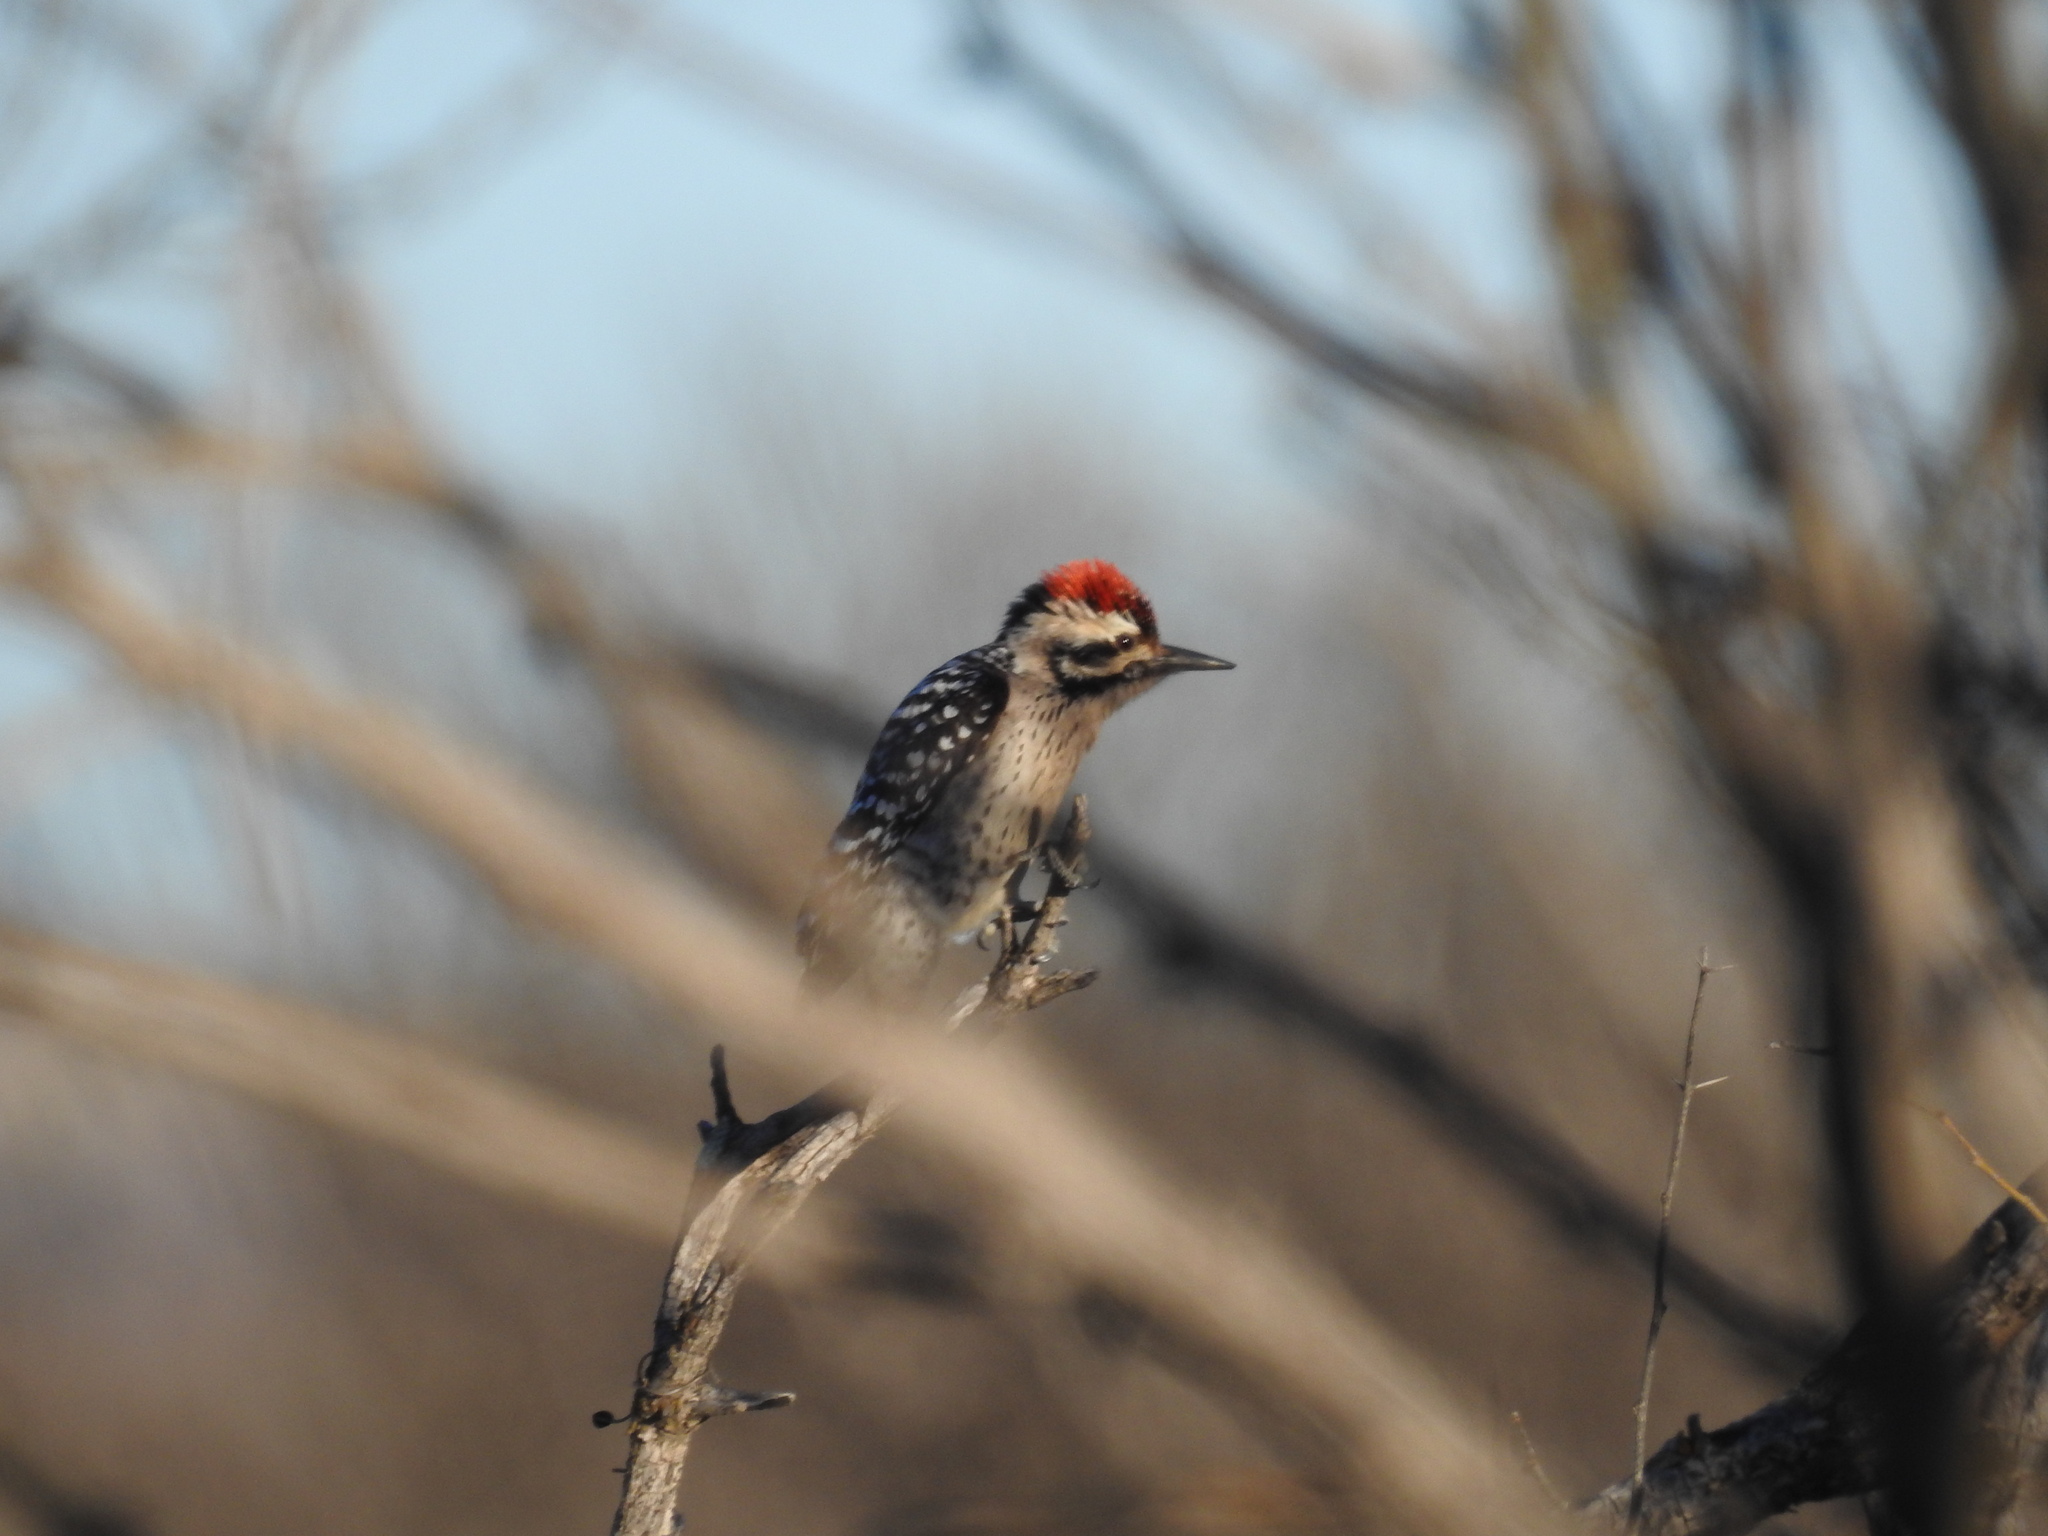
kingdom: Animalia
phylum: Chordata
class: Aves
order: Piciformes
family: Picidae
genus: Dryobates
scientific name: Dryobates scalaris
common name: Ladder-backed woodpecker
